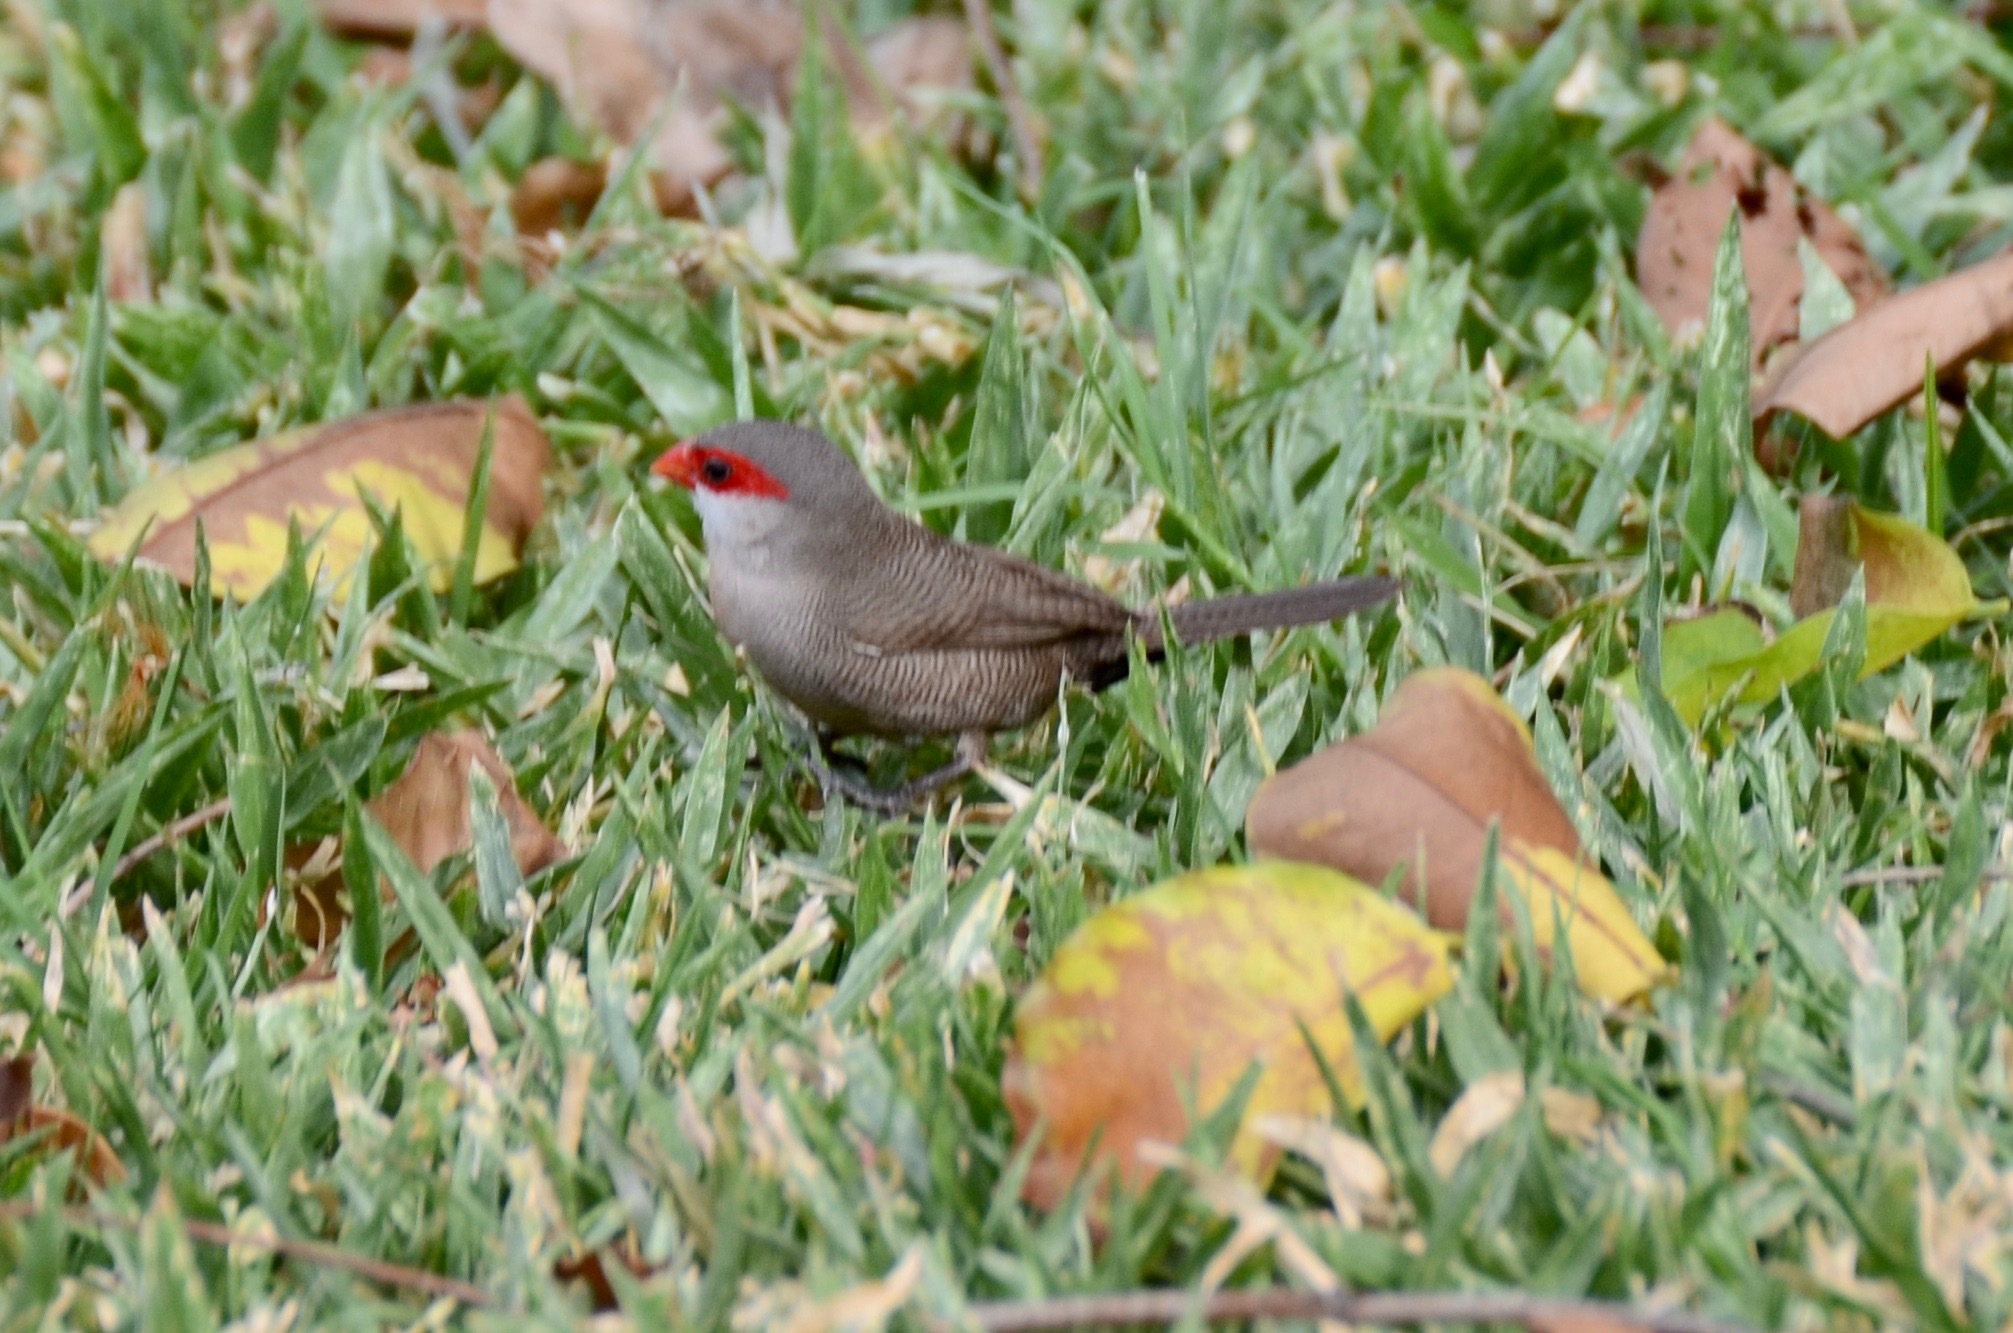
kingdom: Animalia
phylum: Chordata
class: Aves
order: Passeriformes
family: Estrildidae
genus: Estrilda
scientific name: Estrilda astrild
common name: Common waxbill
